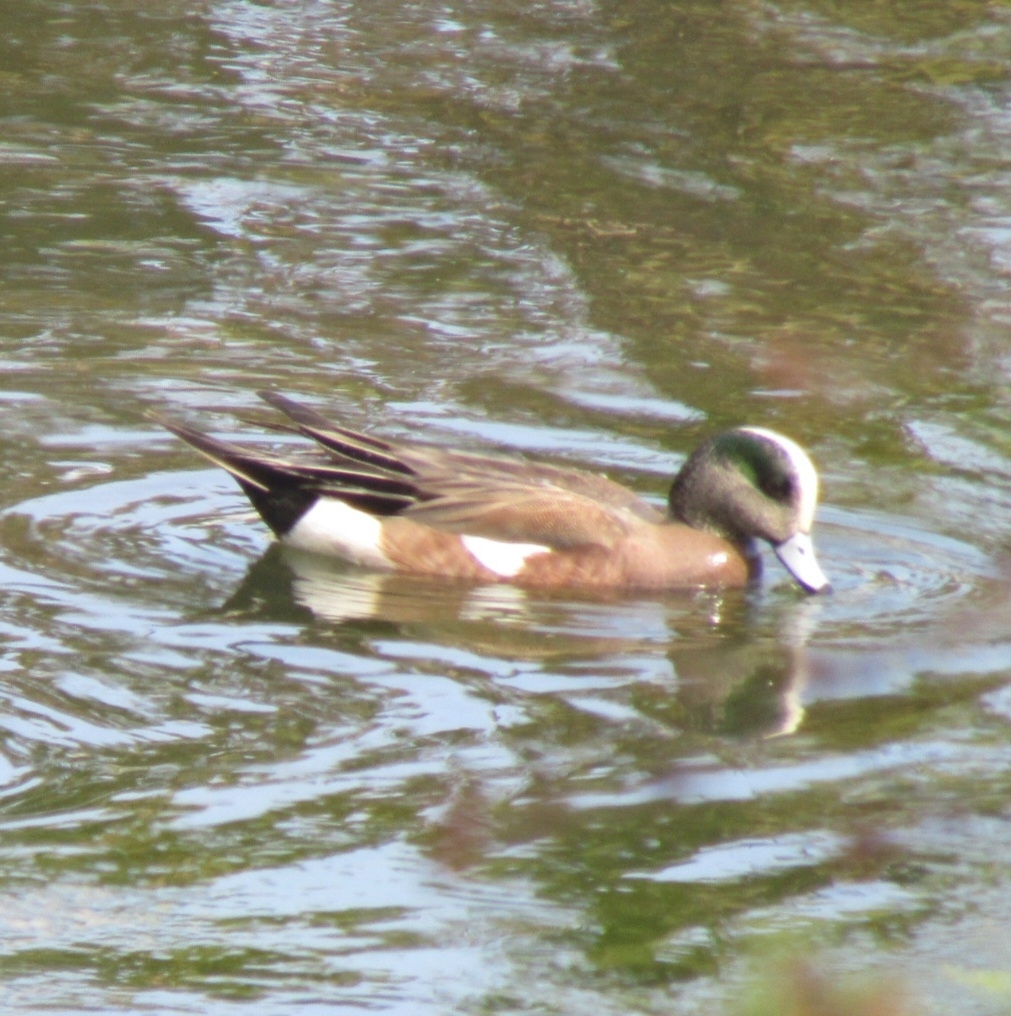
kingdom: Animalia
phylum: Chordata
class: Aves
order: Anseriformes
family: Anatidae
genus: Mareca
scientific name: Mareca americana
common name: American wigeon
